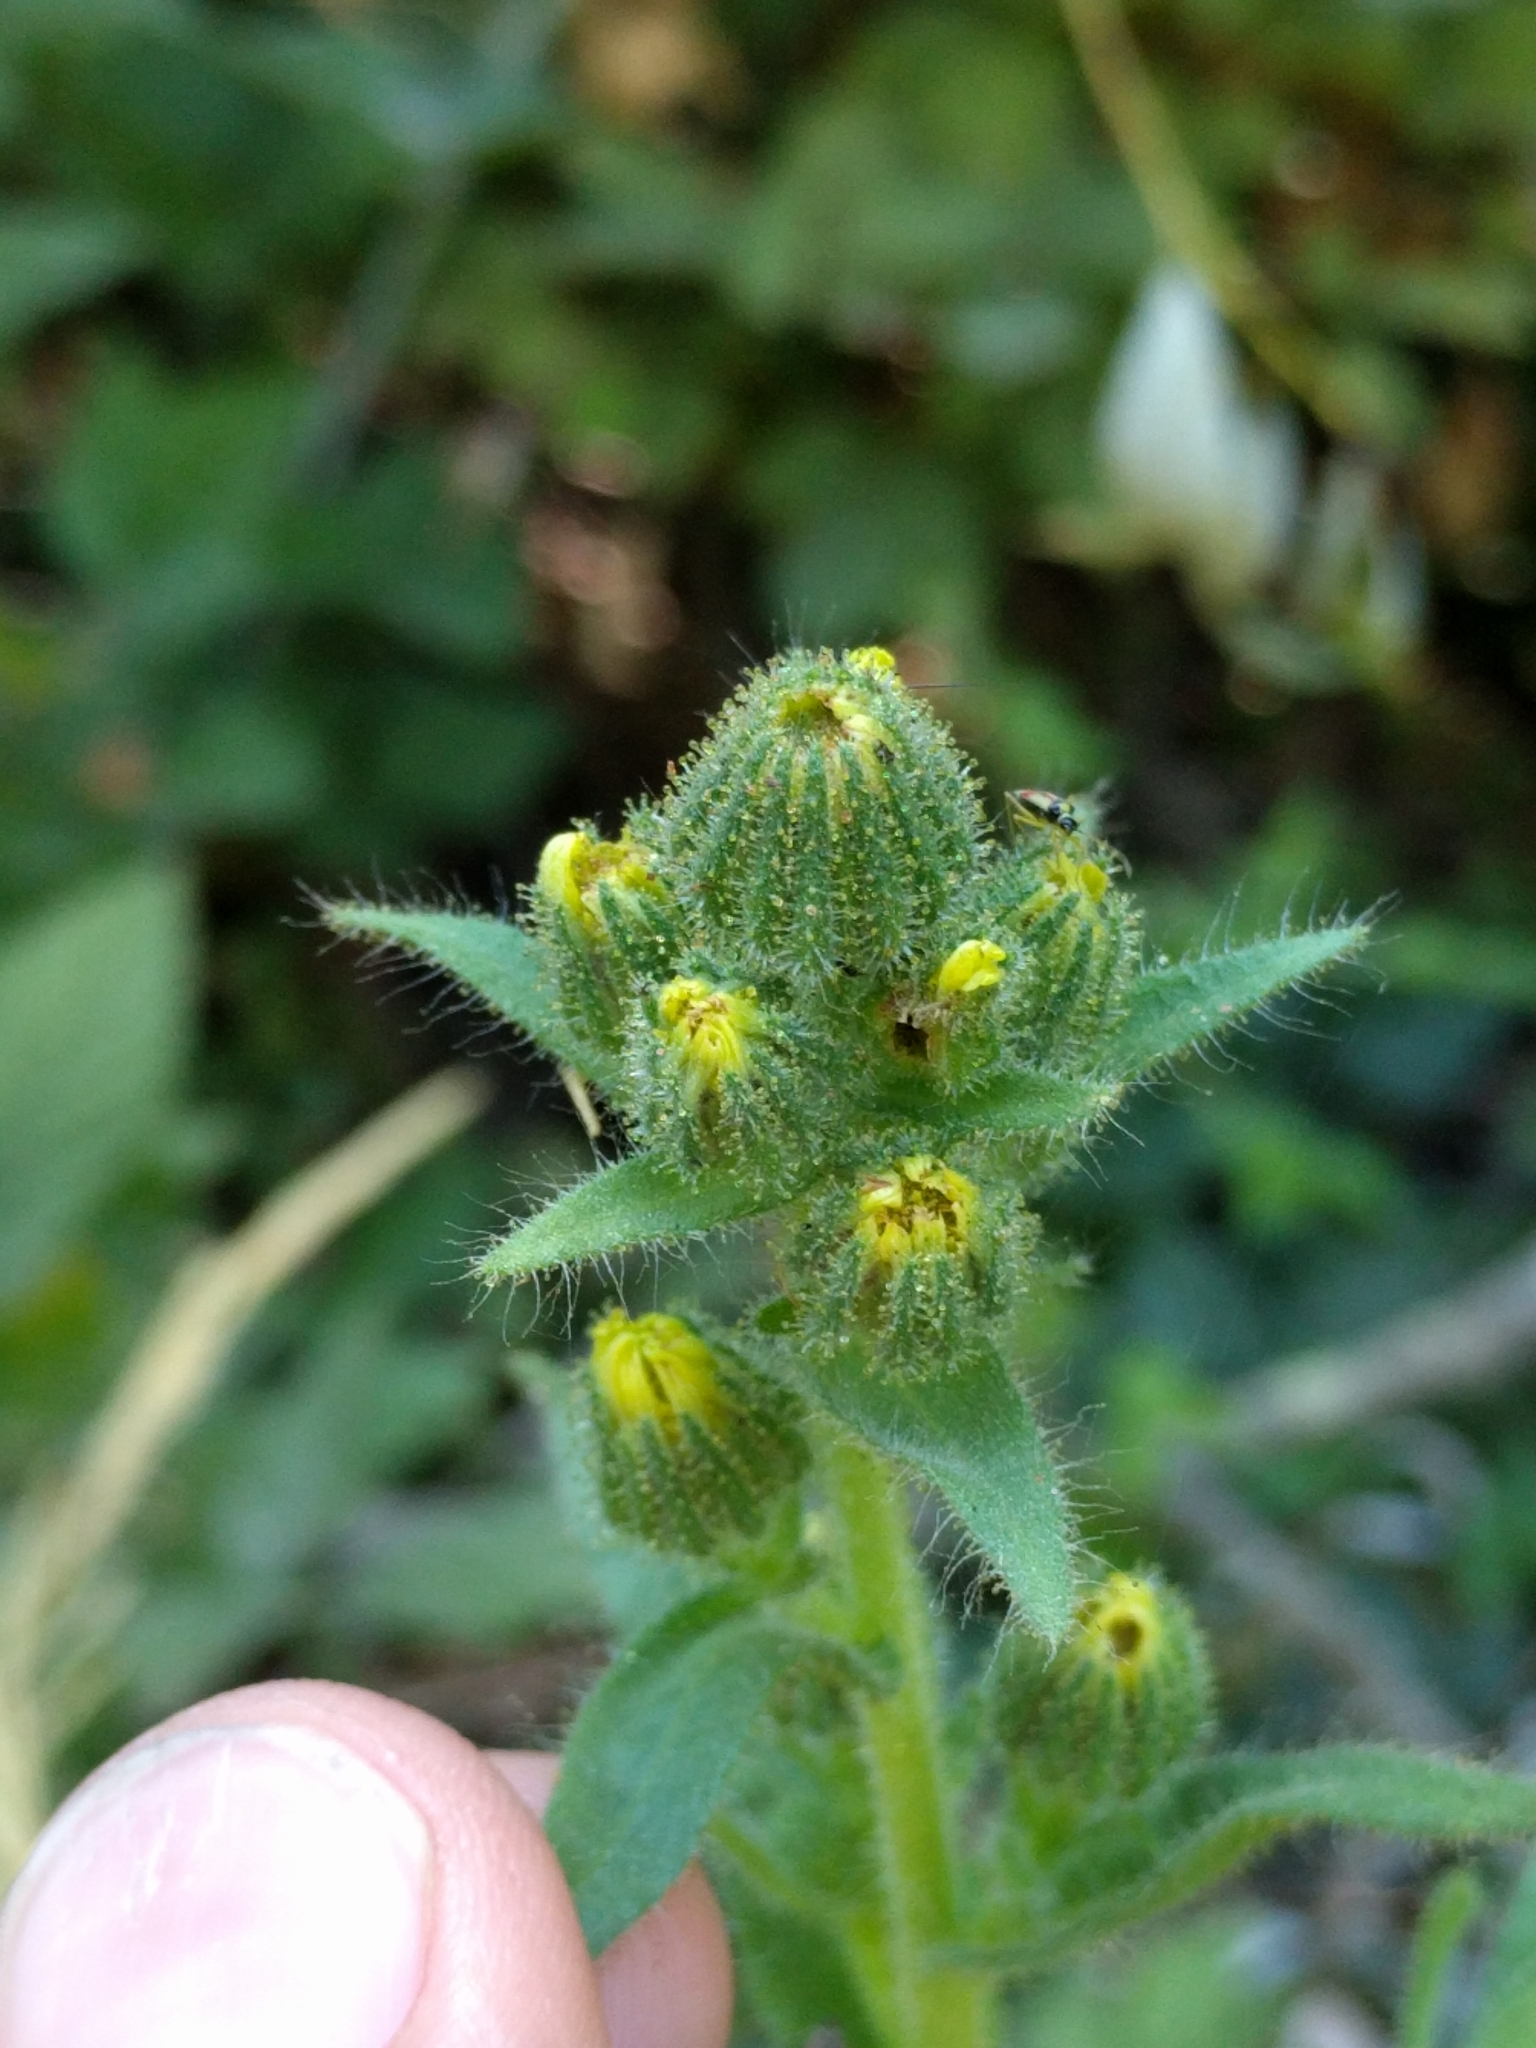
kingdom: Plantae
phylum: Tracheophyta
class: Magnoliopsida
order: Asterales
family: Asteraceae
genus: Madia
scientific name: Madia sativa
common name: Coast tarweed
